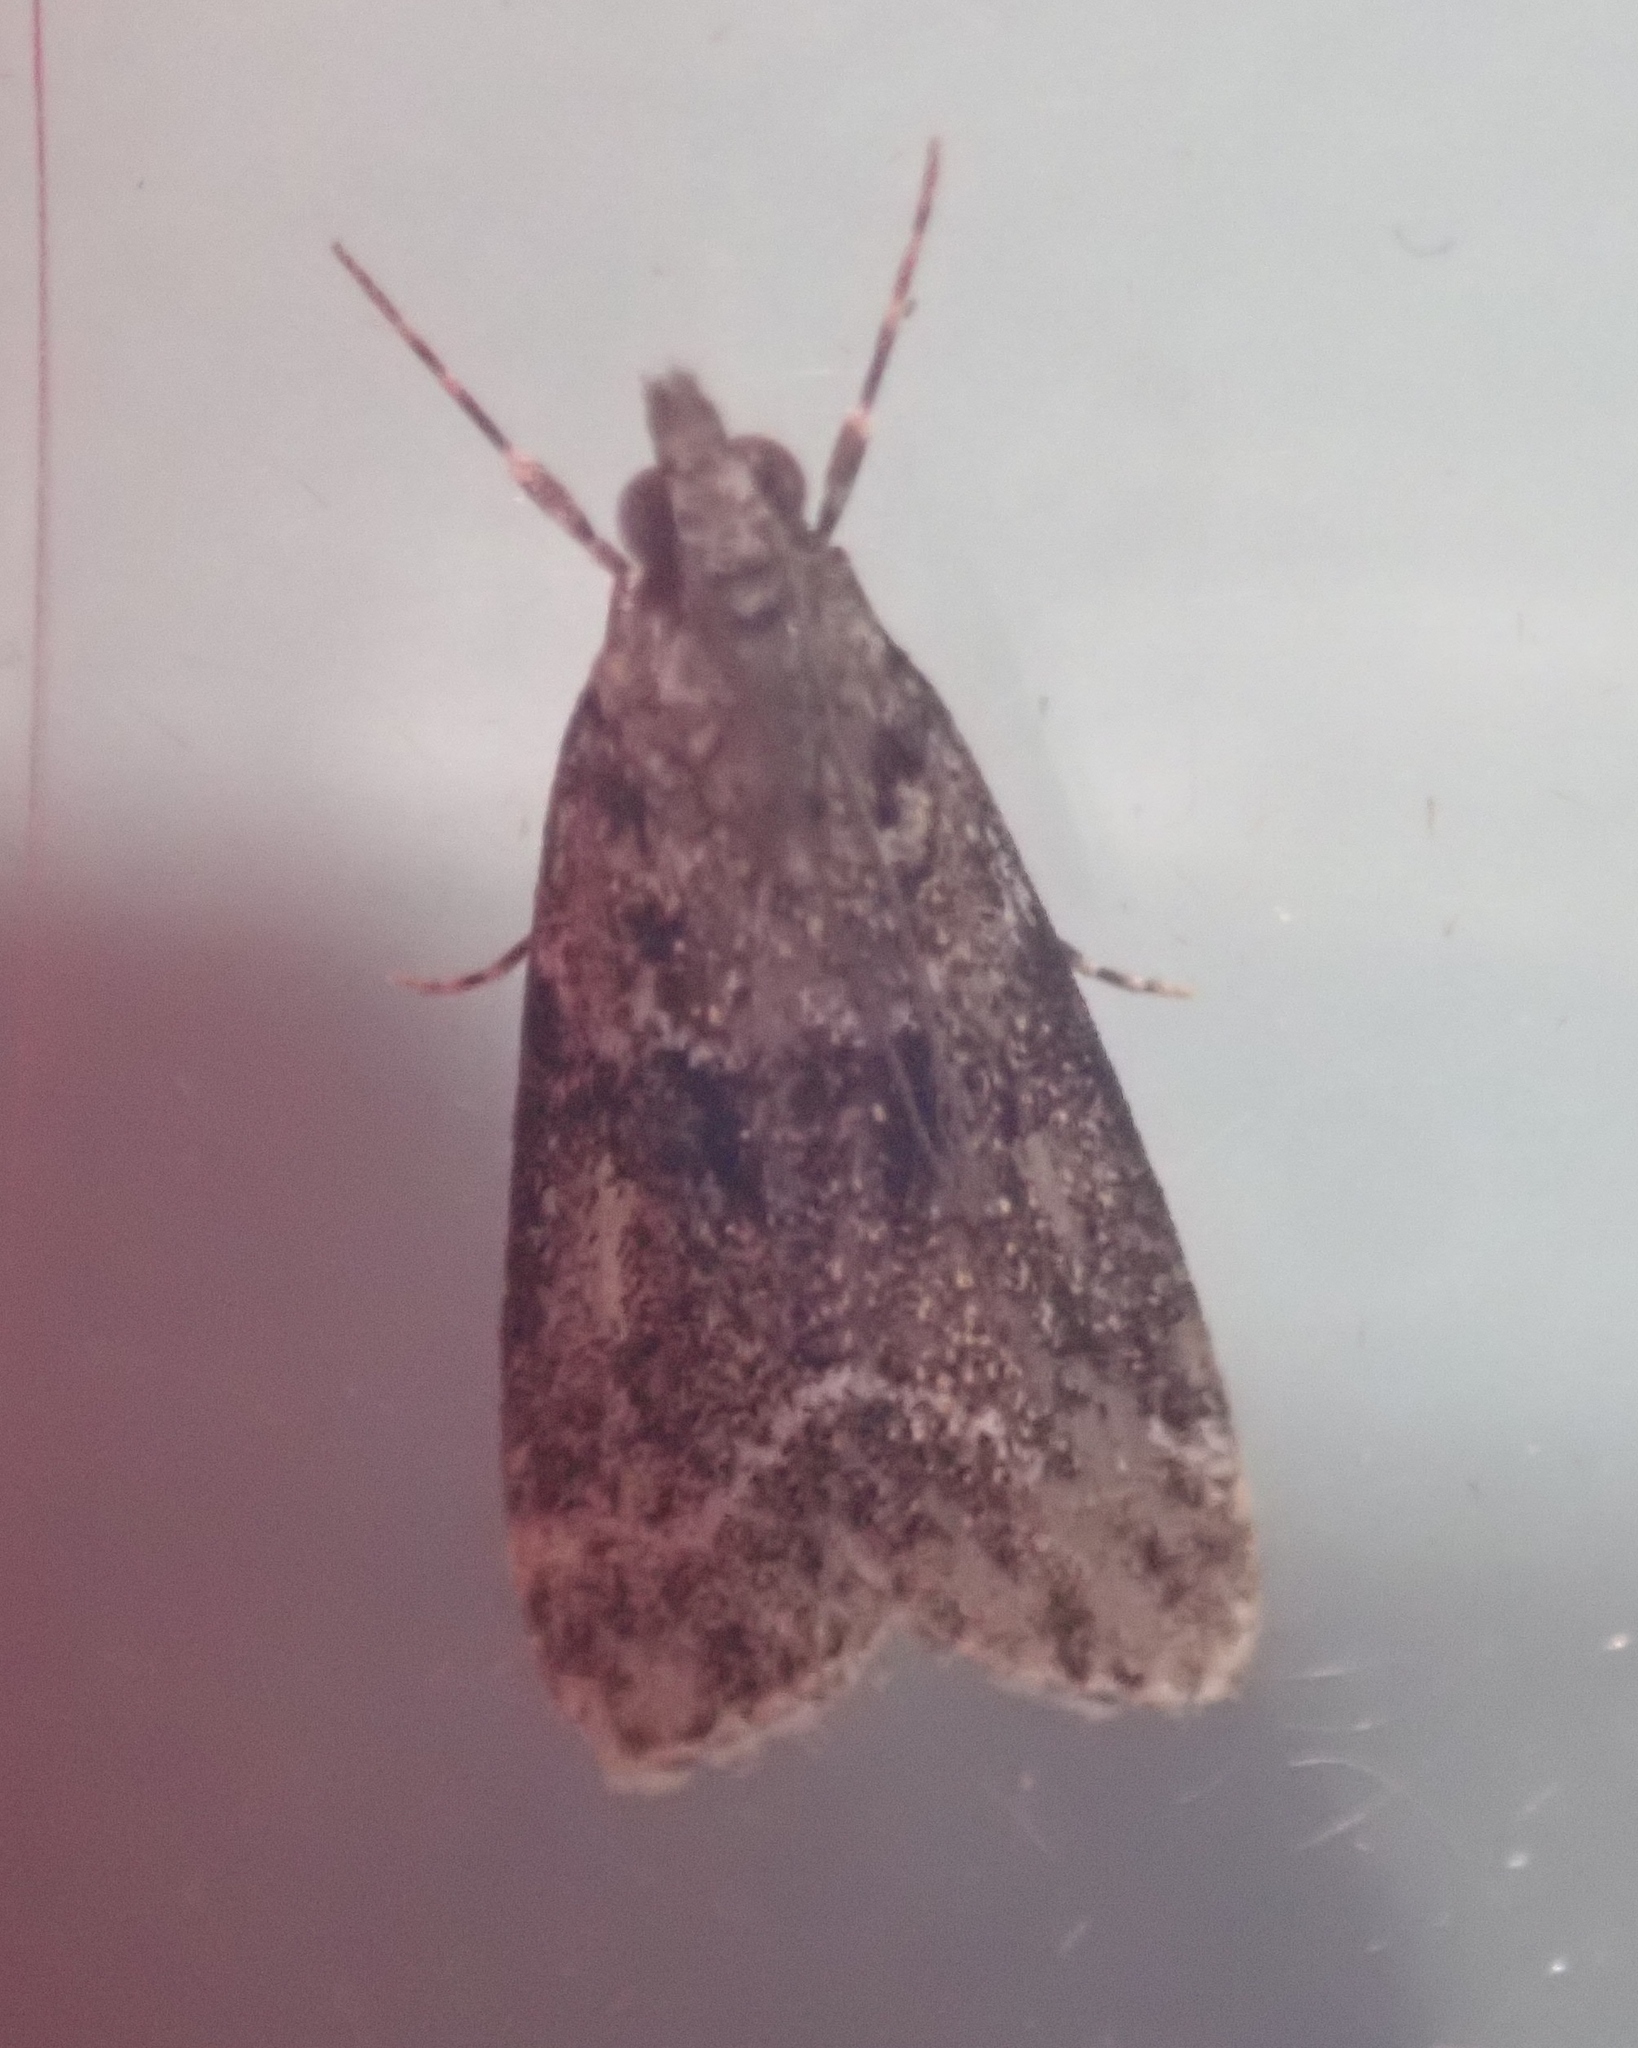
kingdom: Animalia
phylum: Arthropoda
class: Insecta
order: Lepidoptera
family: Crambidae
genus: Eudonia
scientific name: Eudonia mercurella
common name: Small grey
